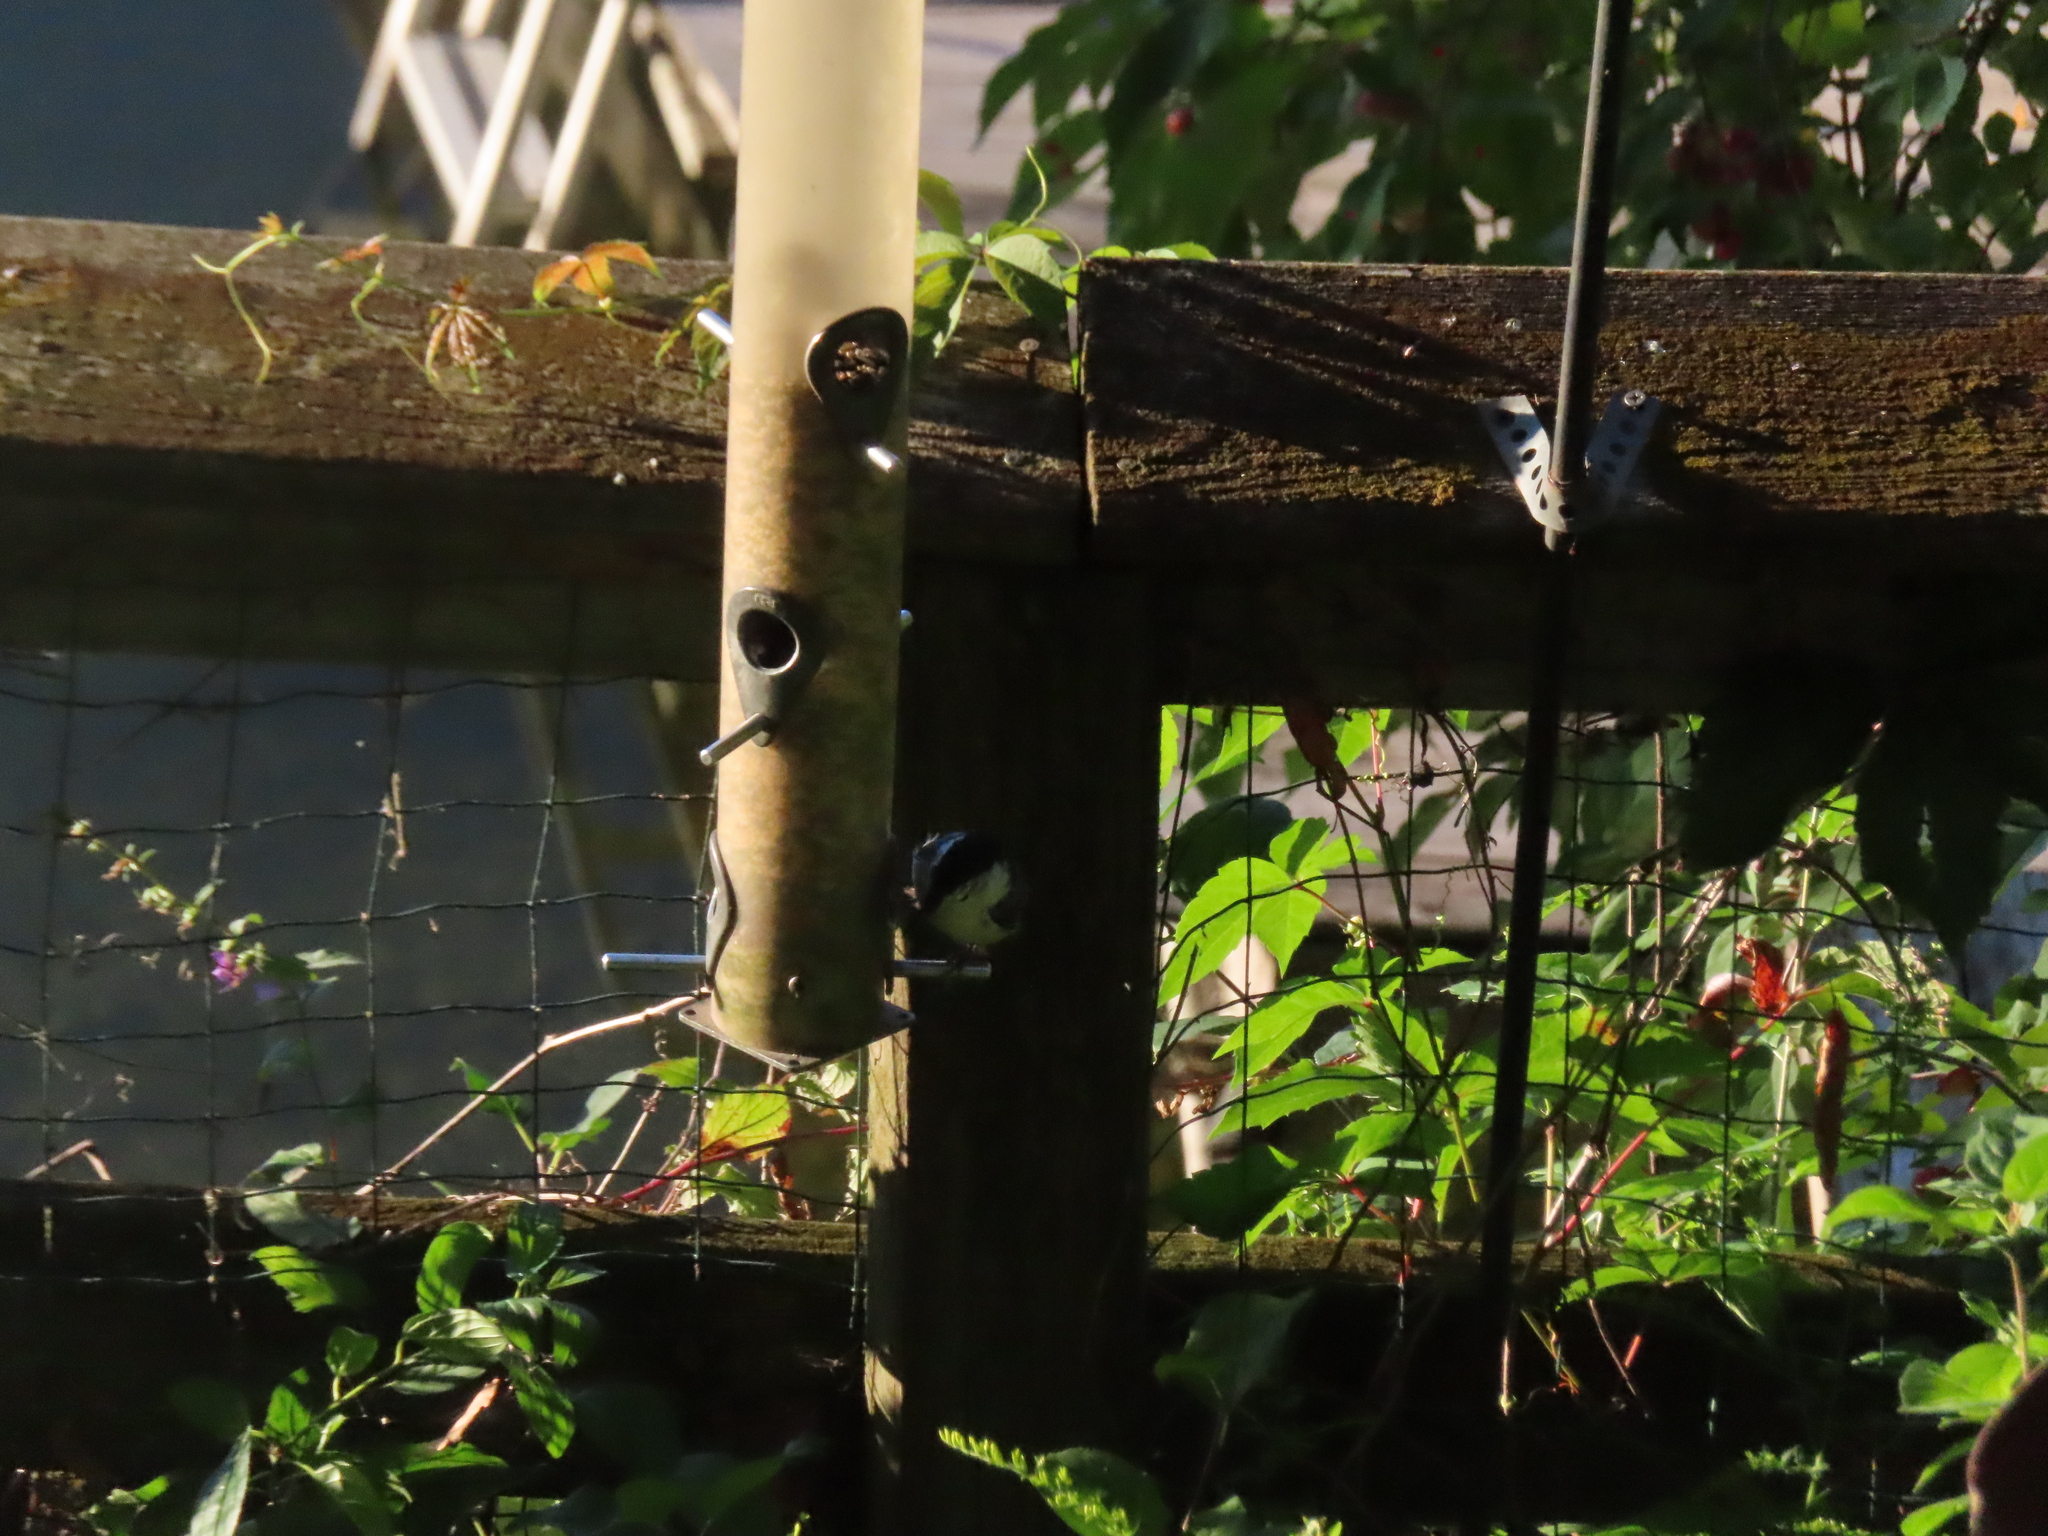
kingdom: Animalia
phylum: Chordata
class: Aves
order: Passeriformes
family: Sittidae
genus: Sitta
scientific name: Sitta carolinensis
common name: White-breasted nuthatch
